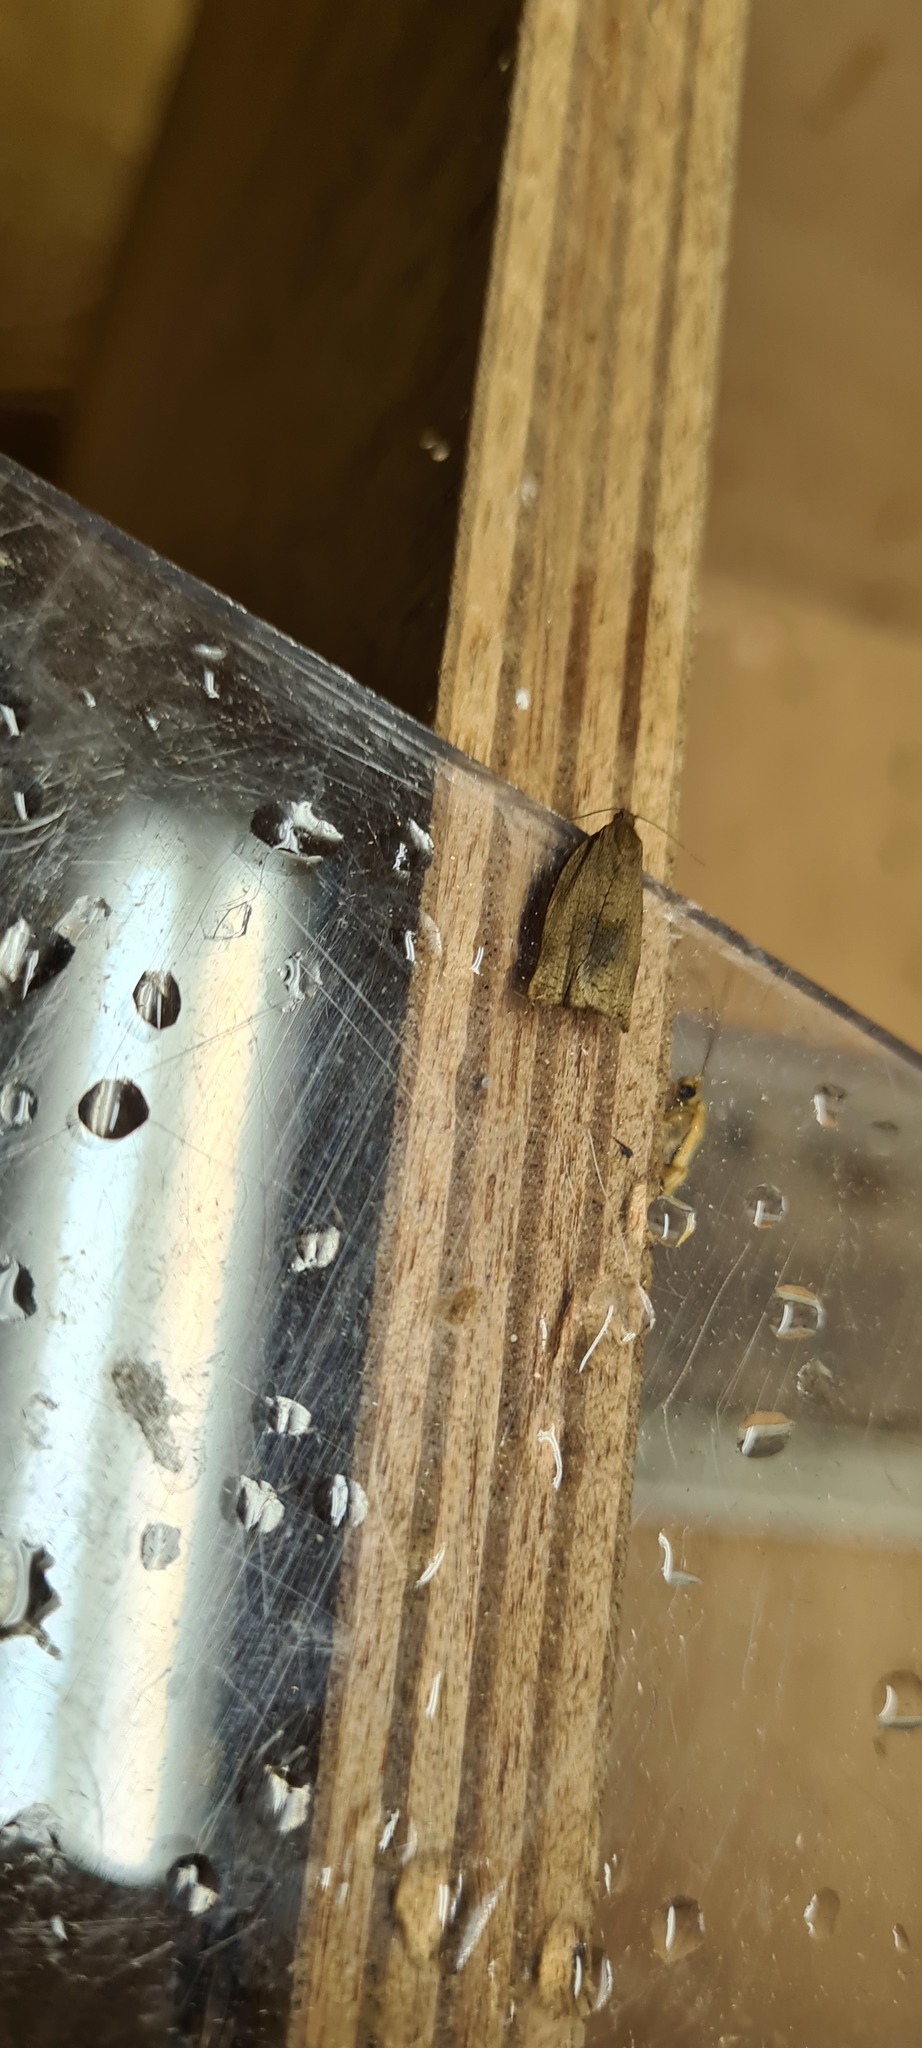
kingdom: Animalia
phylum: Arthropoda
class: Insecta
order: Lepidoptera
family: Tortricidae
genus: Archips
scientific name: Archips rosana
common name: Rose tortrix
